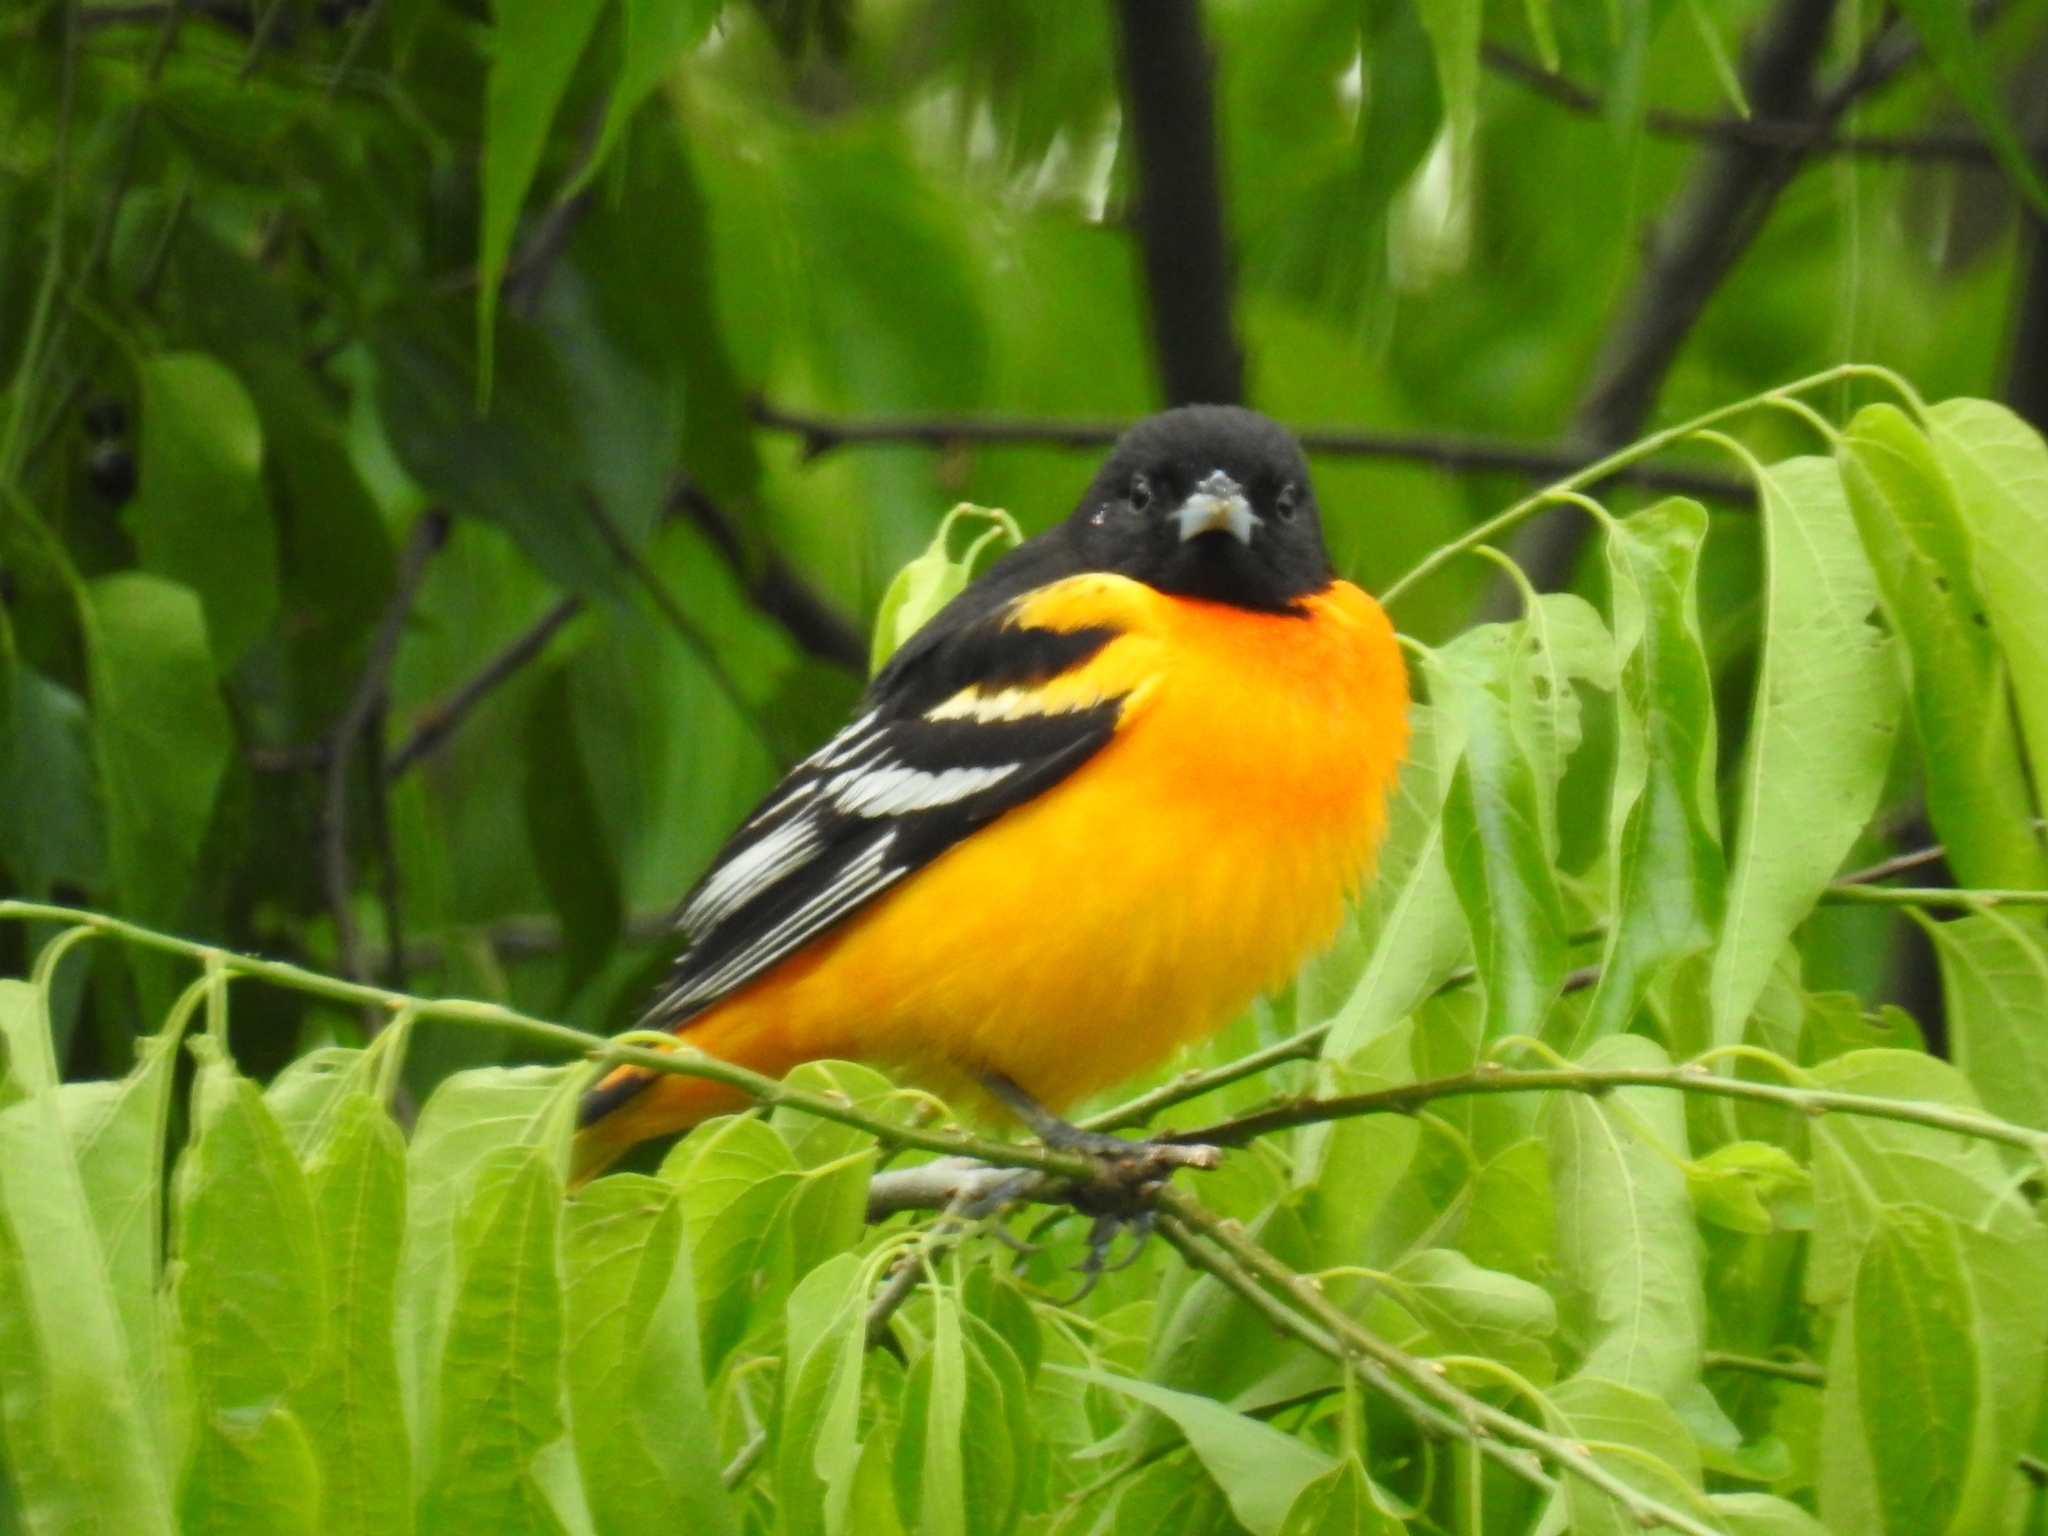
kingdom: Animalia
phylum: Chordata
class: Aves
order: Passeriformes
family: Icteridae
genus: Icterus
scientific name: Icterus galbula
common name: Baltimore oriole
